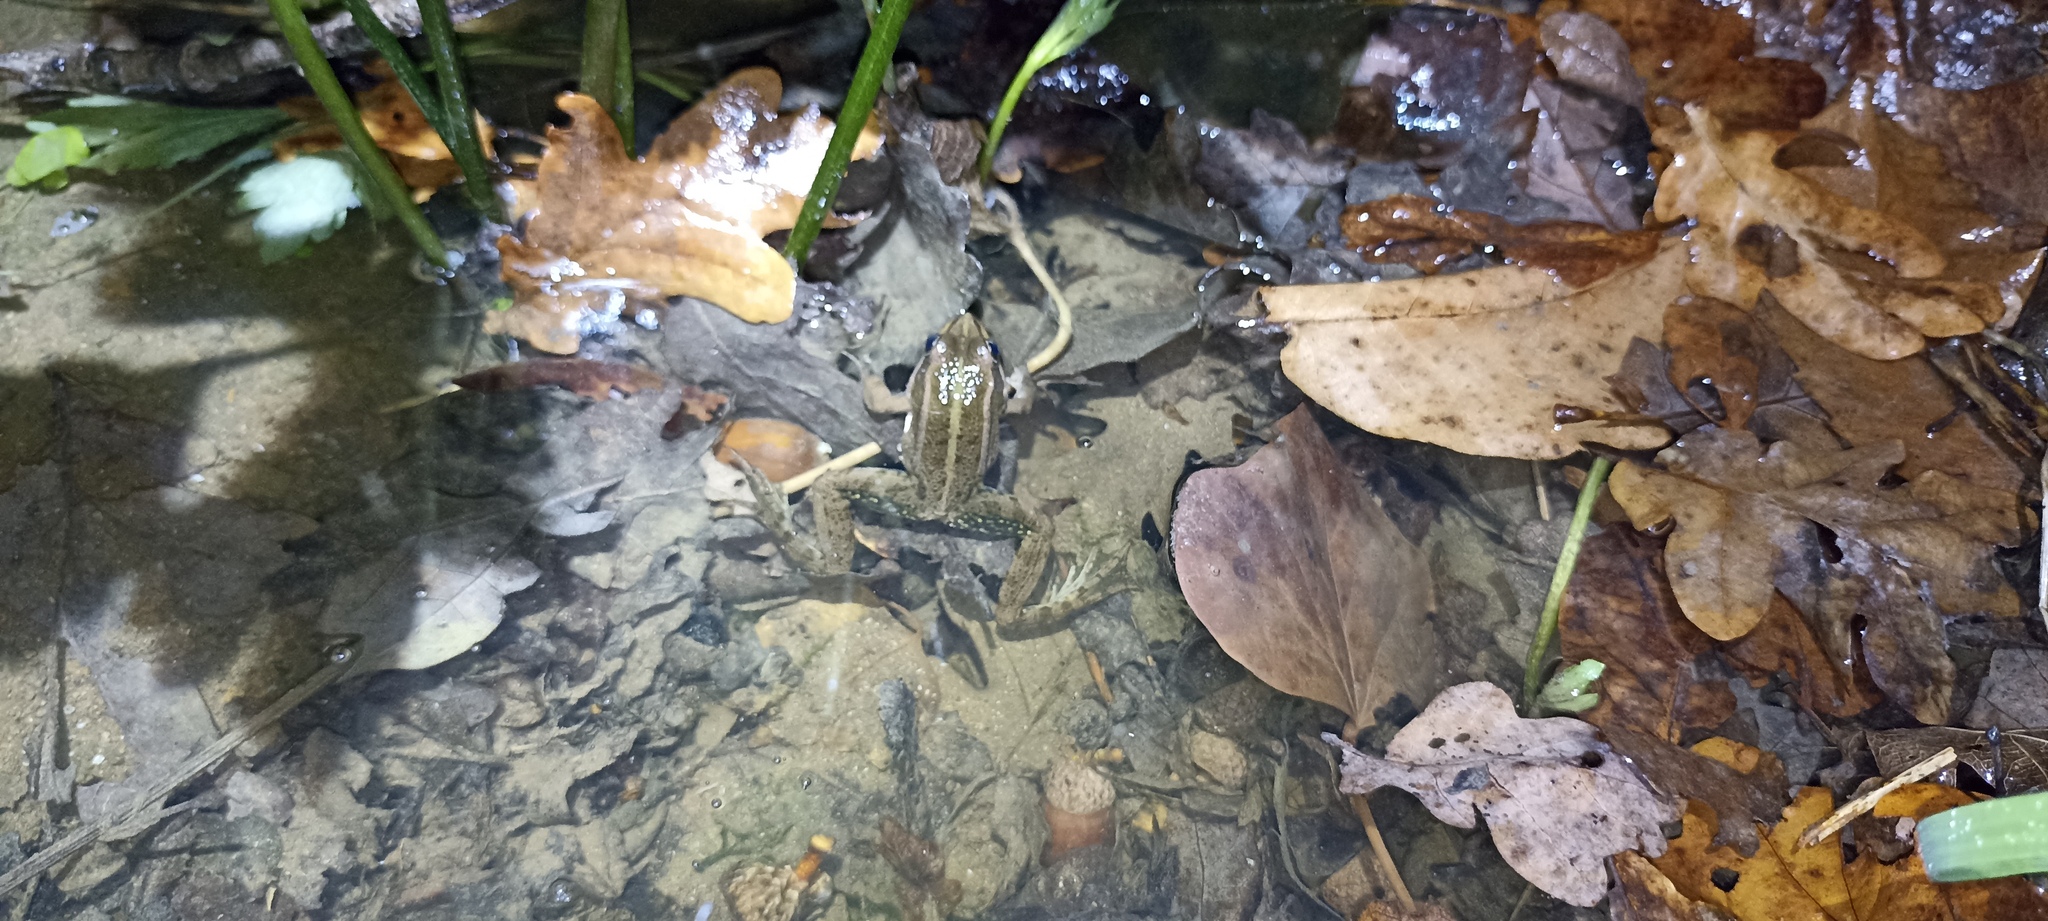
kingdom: Animalia
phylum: Chordata
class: Amphibia
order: Anura
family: Ranidae
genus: Pelophylax
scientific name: Pelophylax
